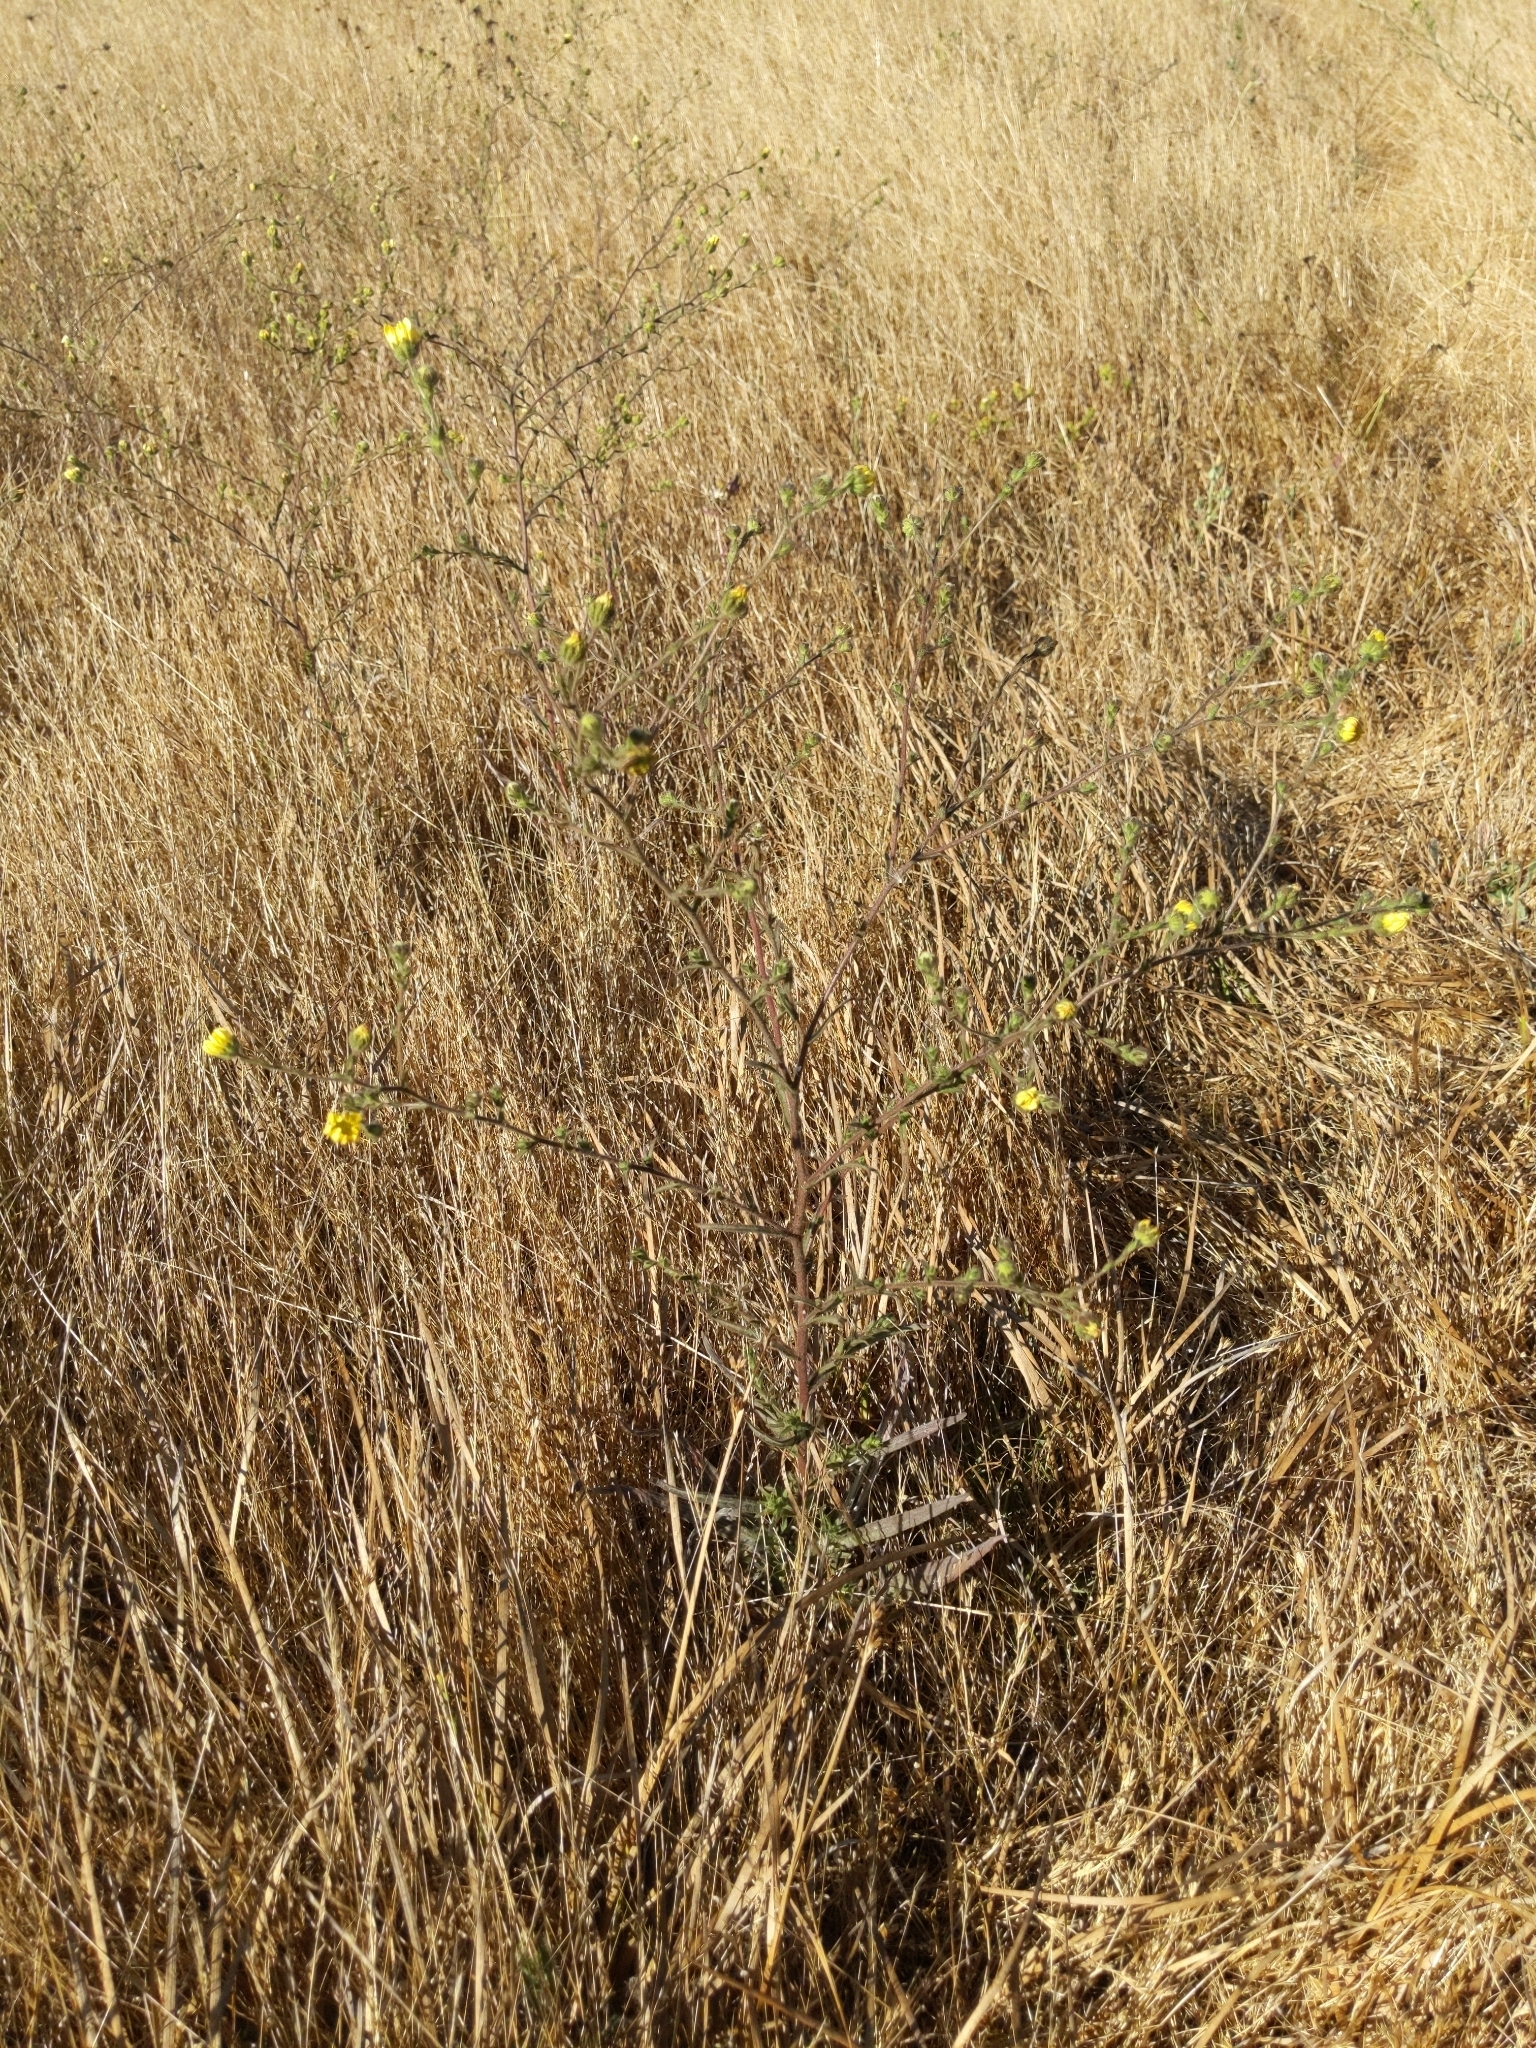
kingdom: Plantae
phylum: Tracheophyta
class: Magnoliopsida
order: Asterales
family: Asteraceae
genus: Madia
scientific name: Madia elegans
